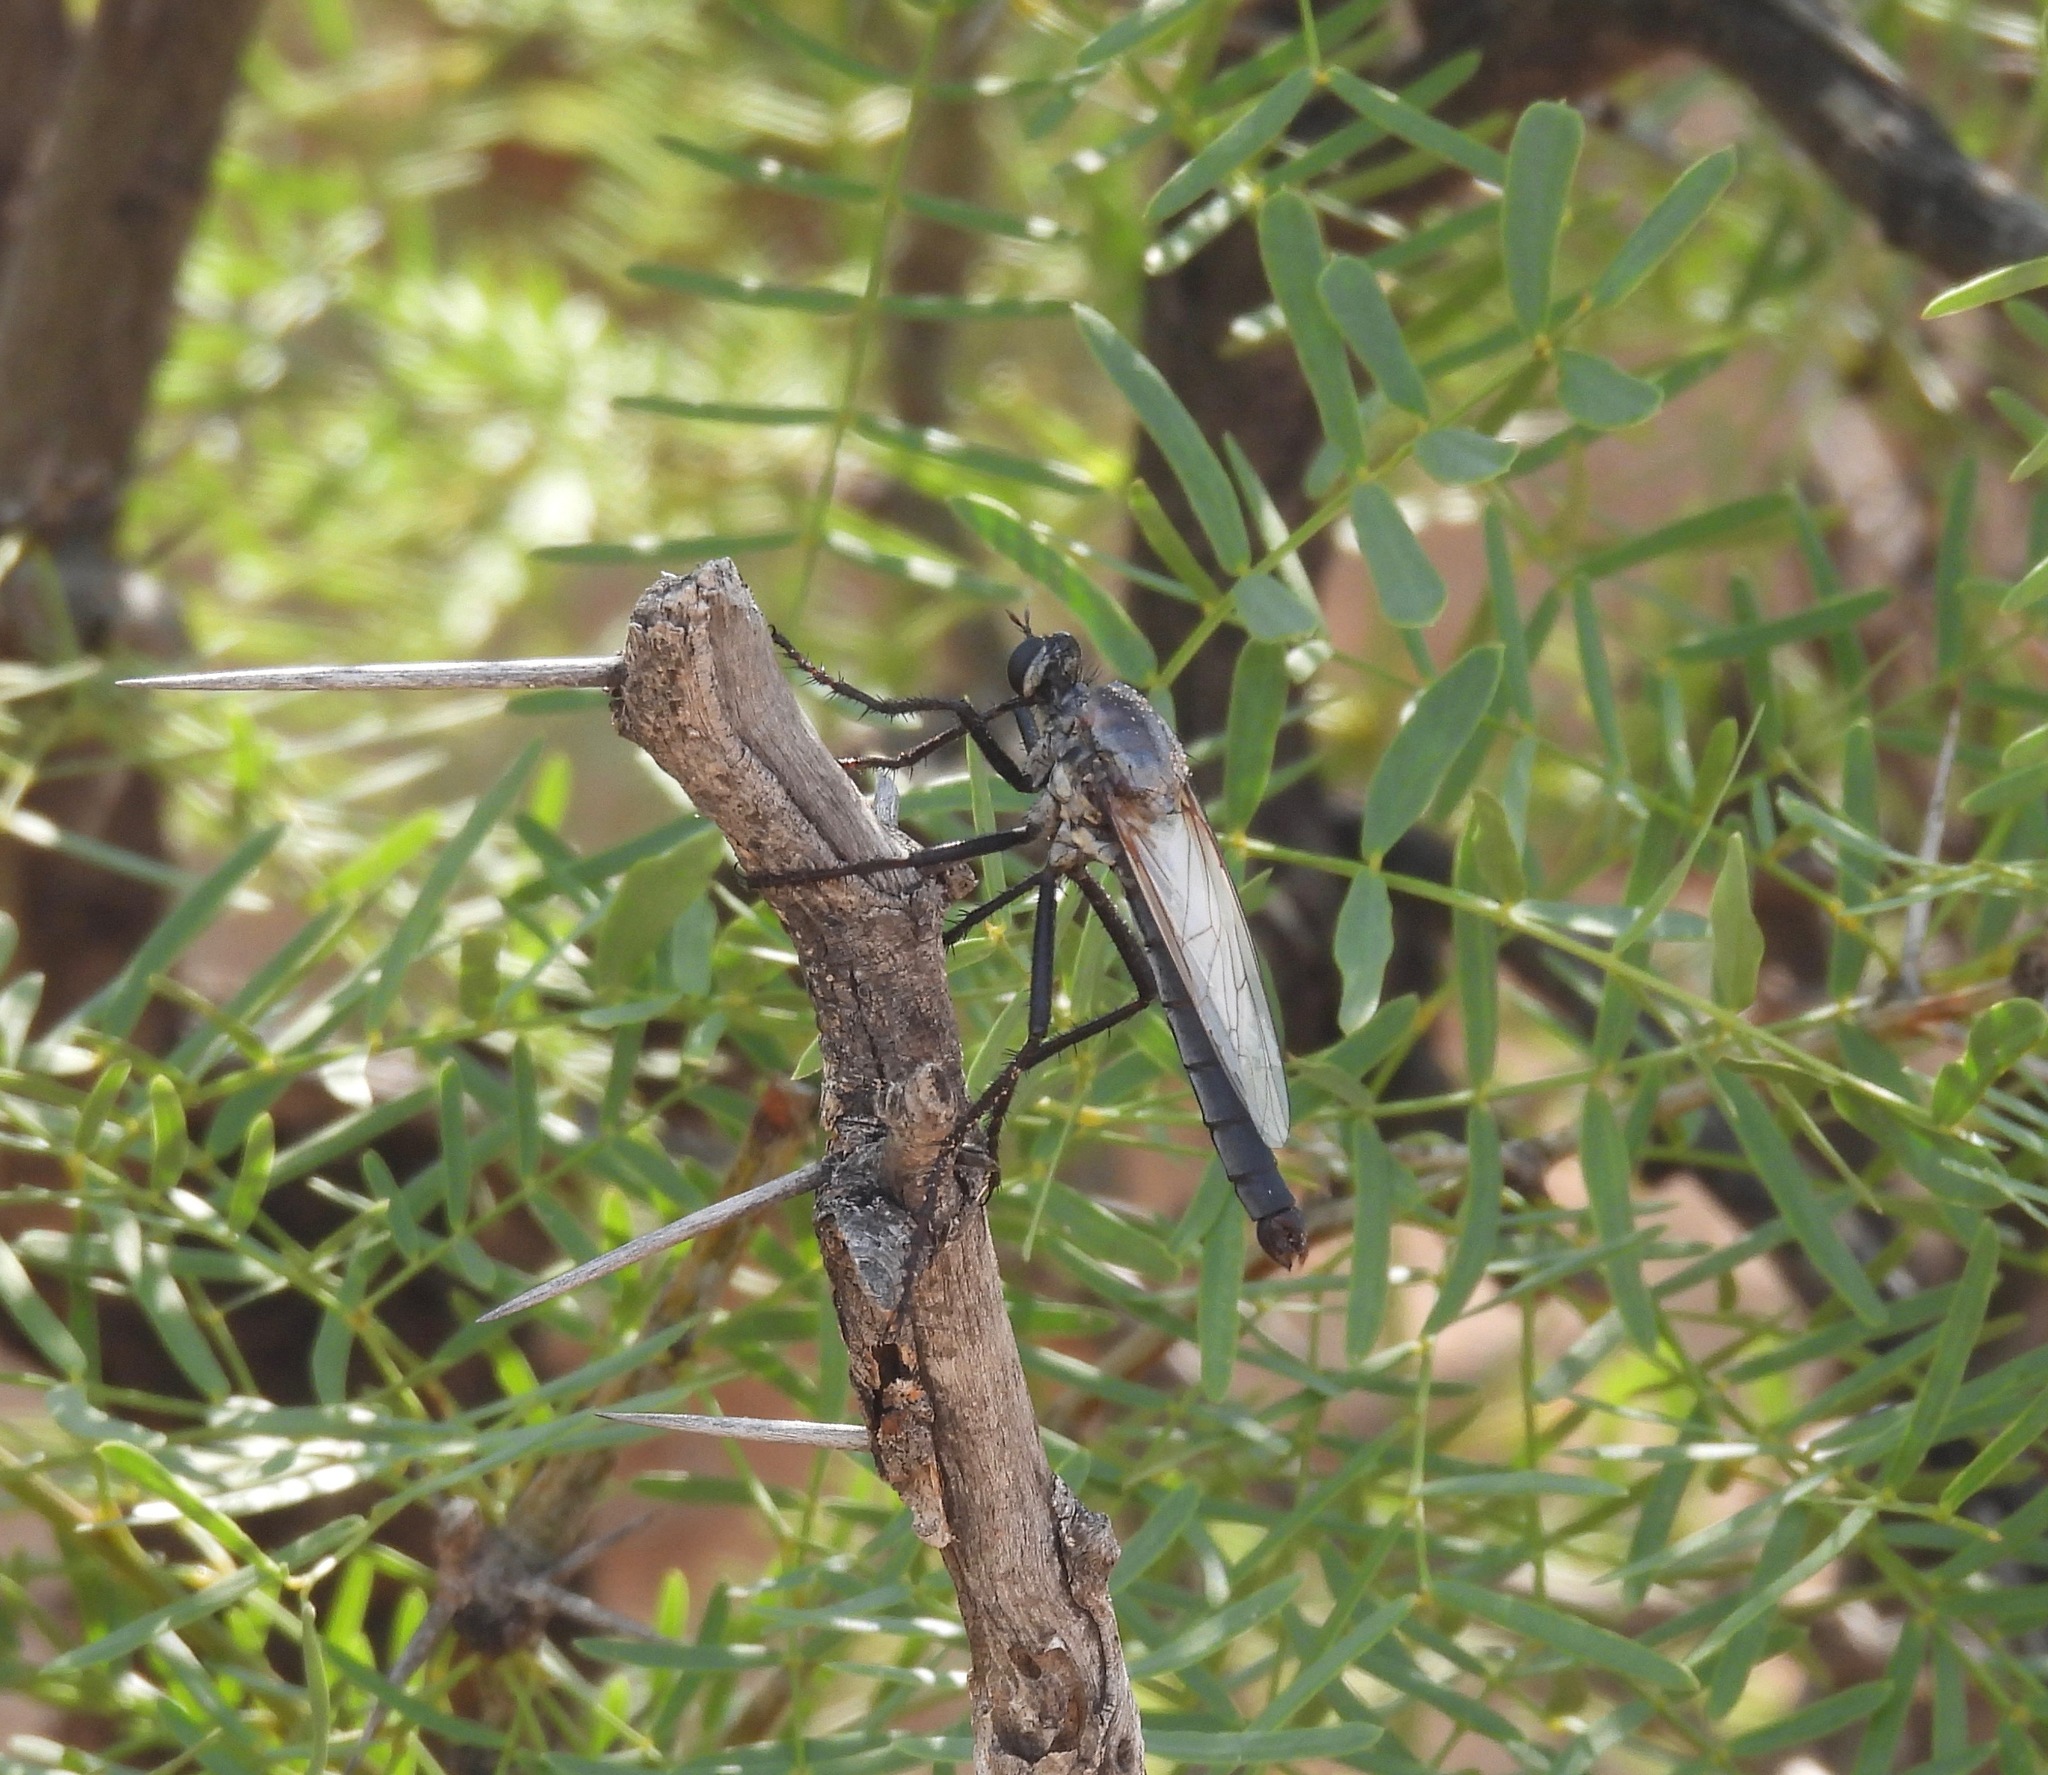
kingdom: Animalia
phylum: Arthropoda
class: Insecta
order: Diptera
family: Asilidae
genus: Microstylum
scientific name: Microstylum galactodes
